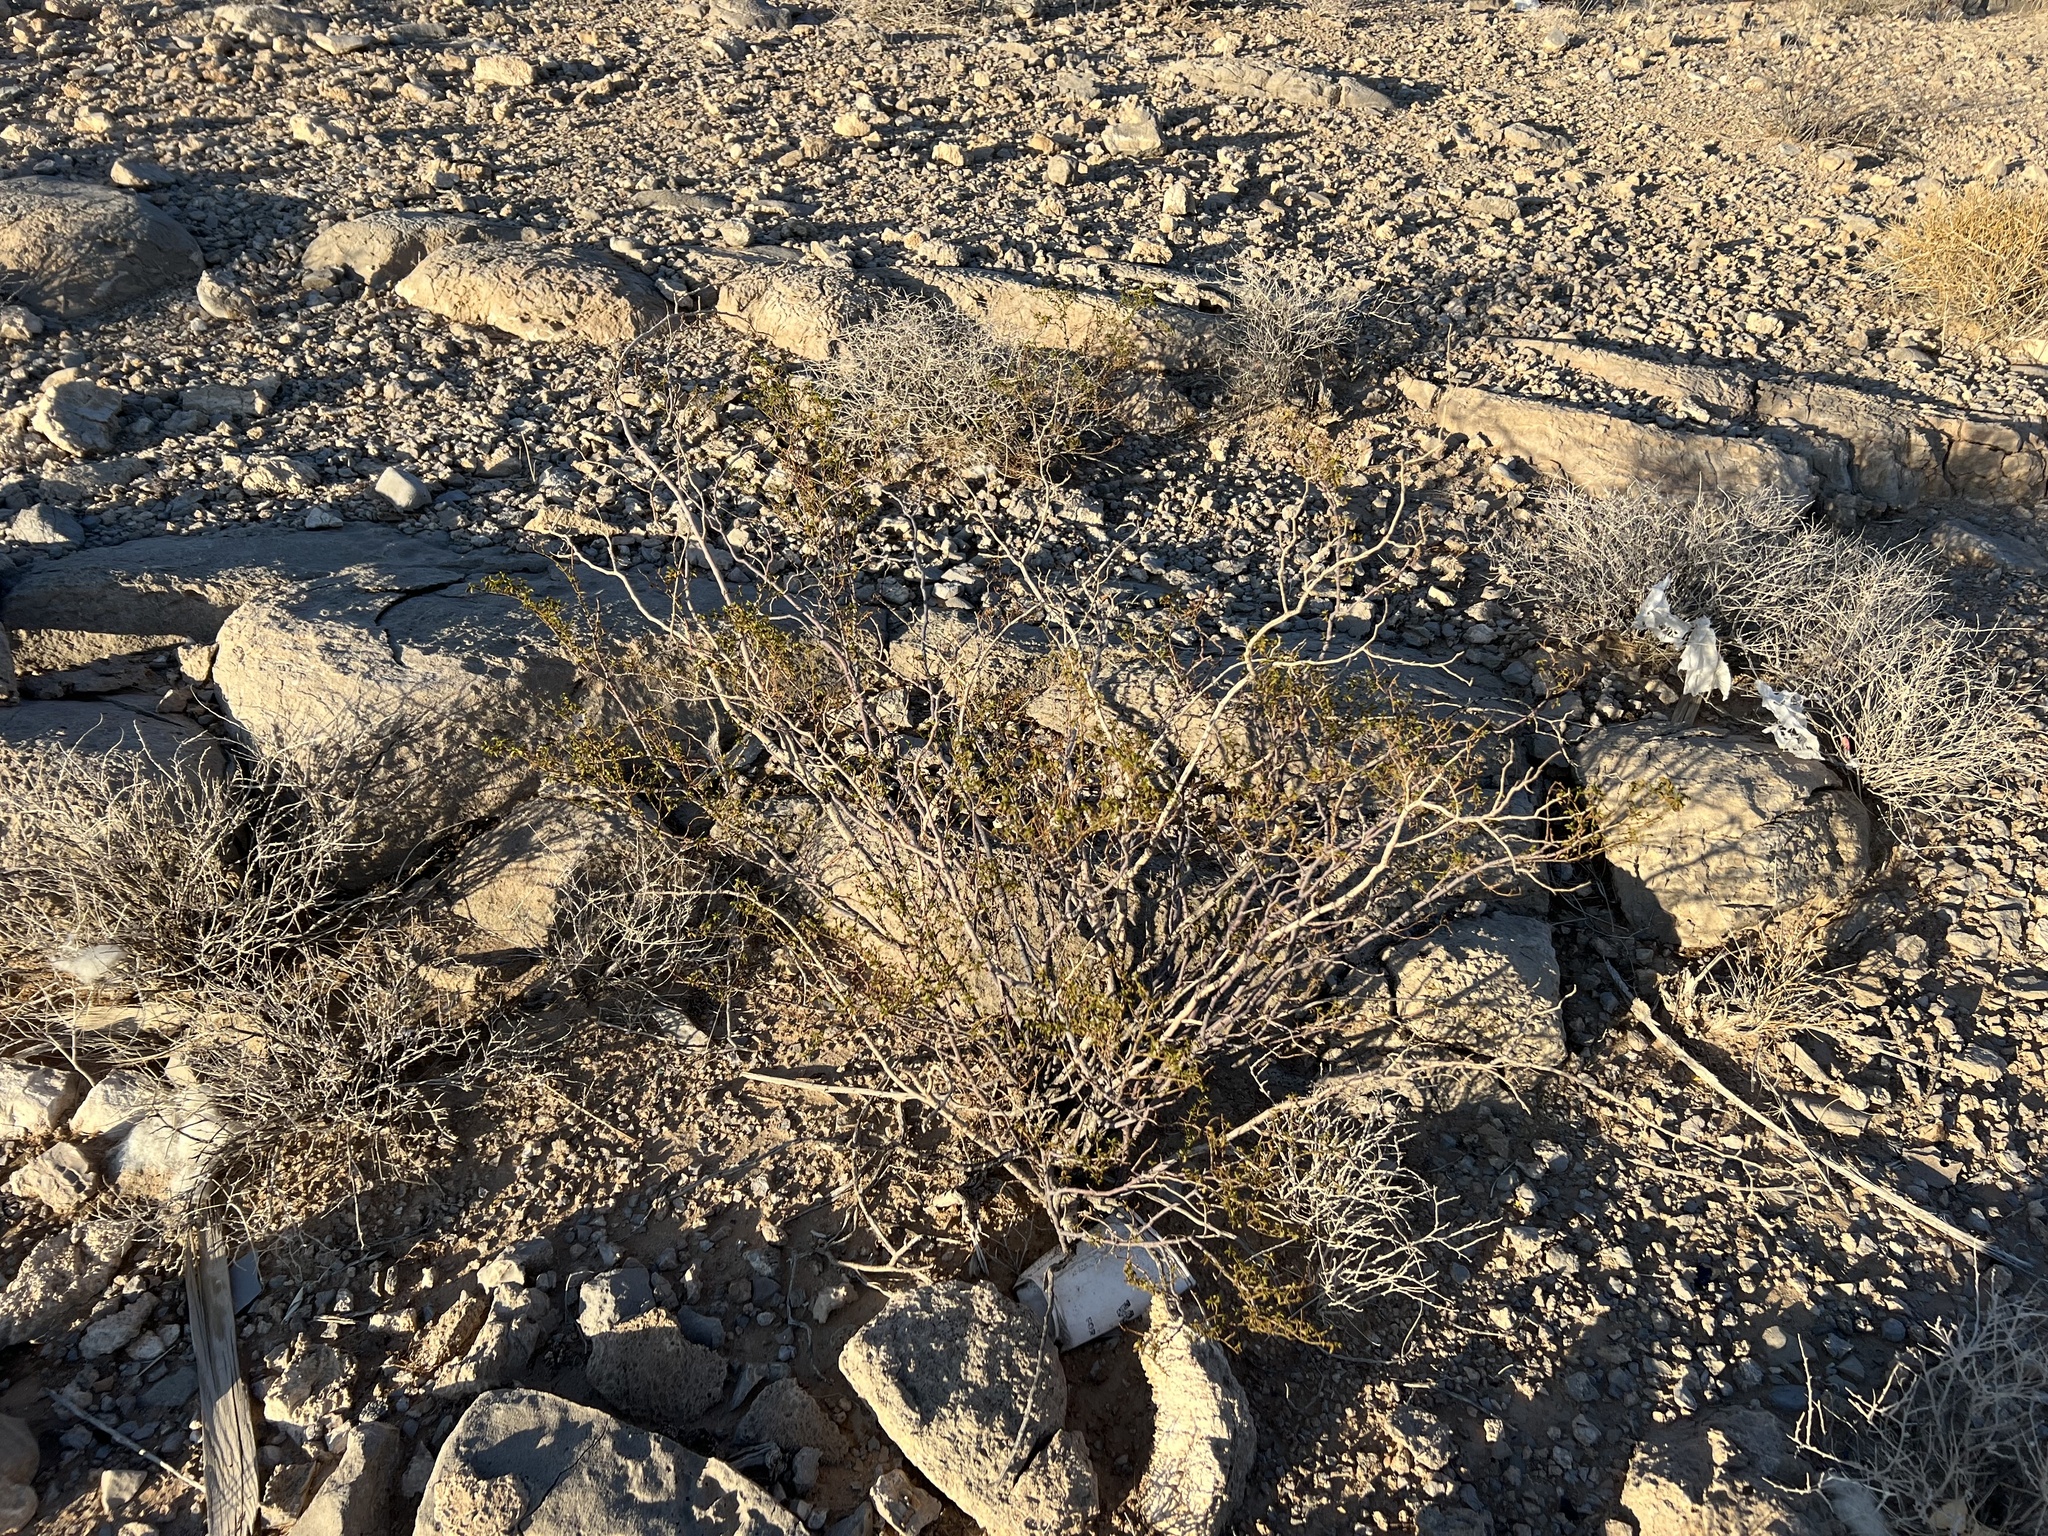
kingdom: Plantae
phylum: Tracheophyta
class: Magnoliopsida
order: Zygophyllales
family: Zygophyllaceae
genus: Larrea
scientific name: Larrea tridentata
